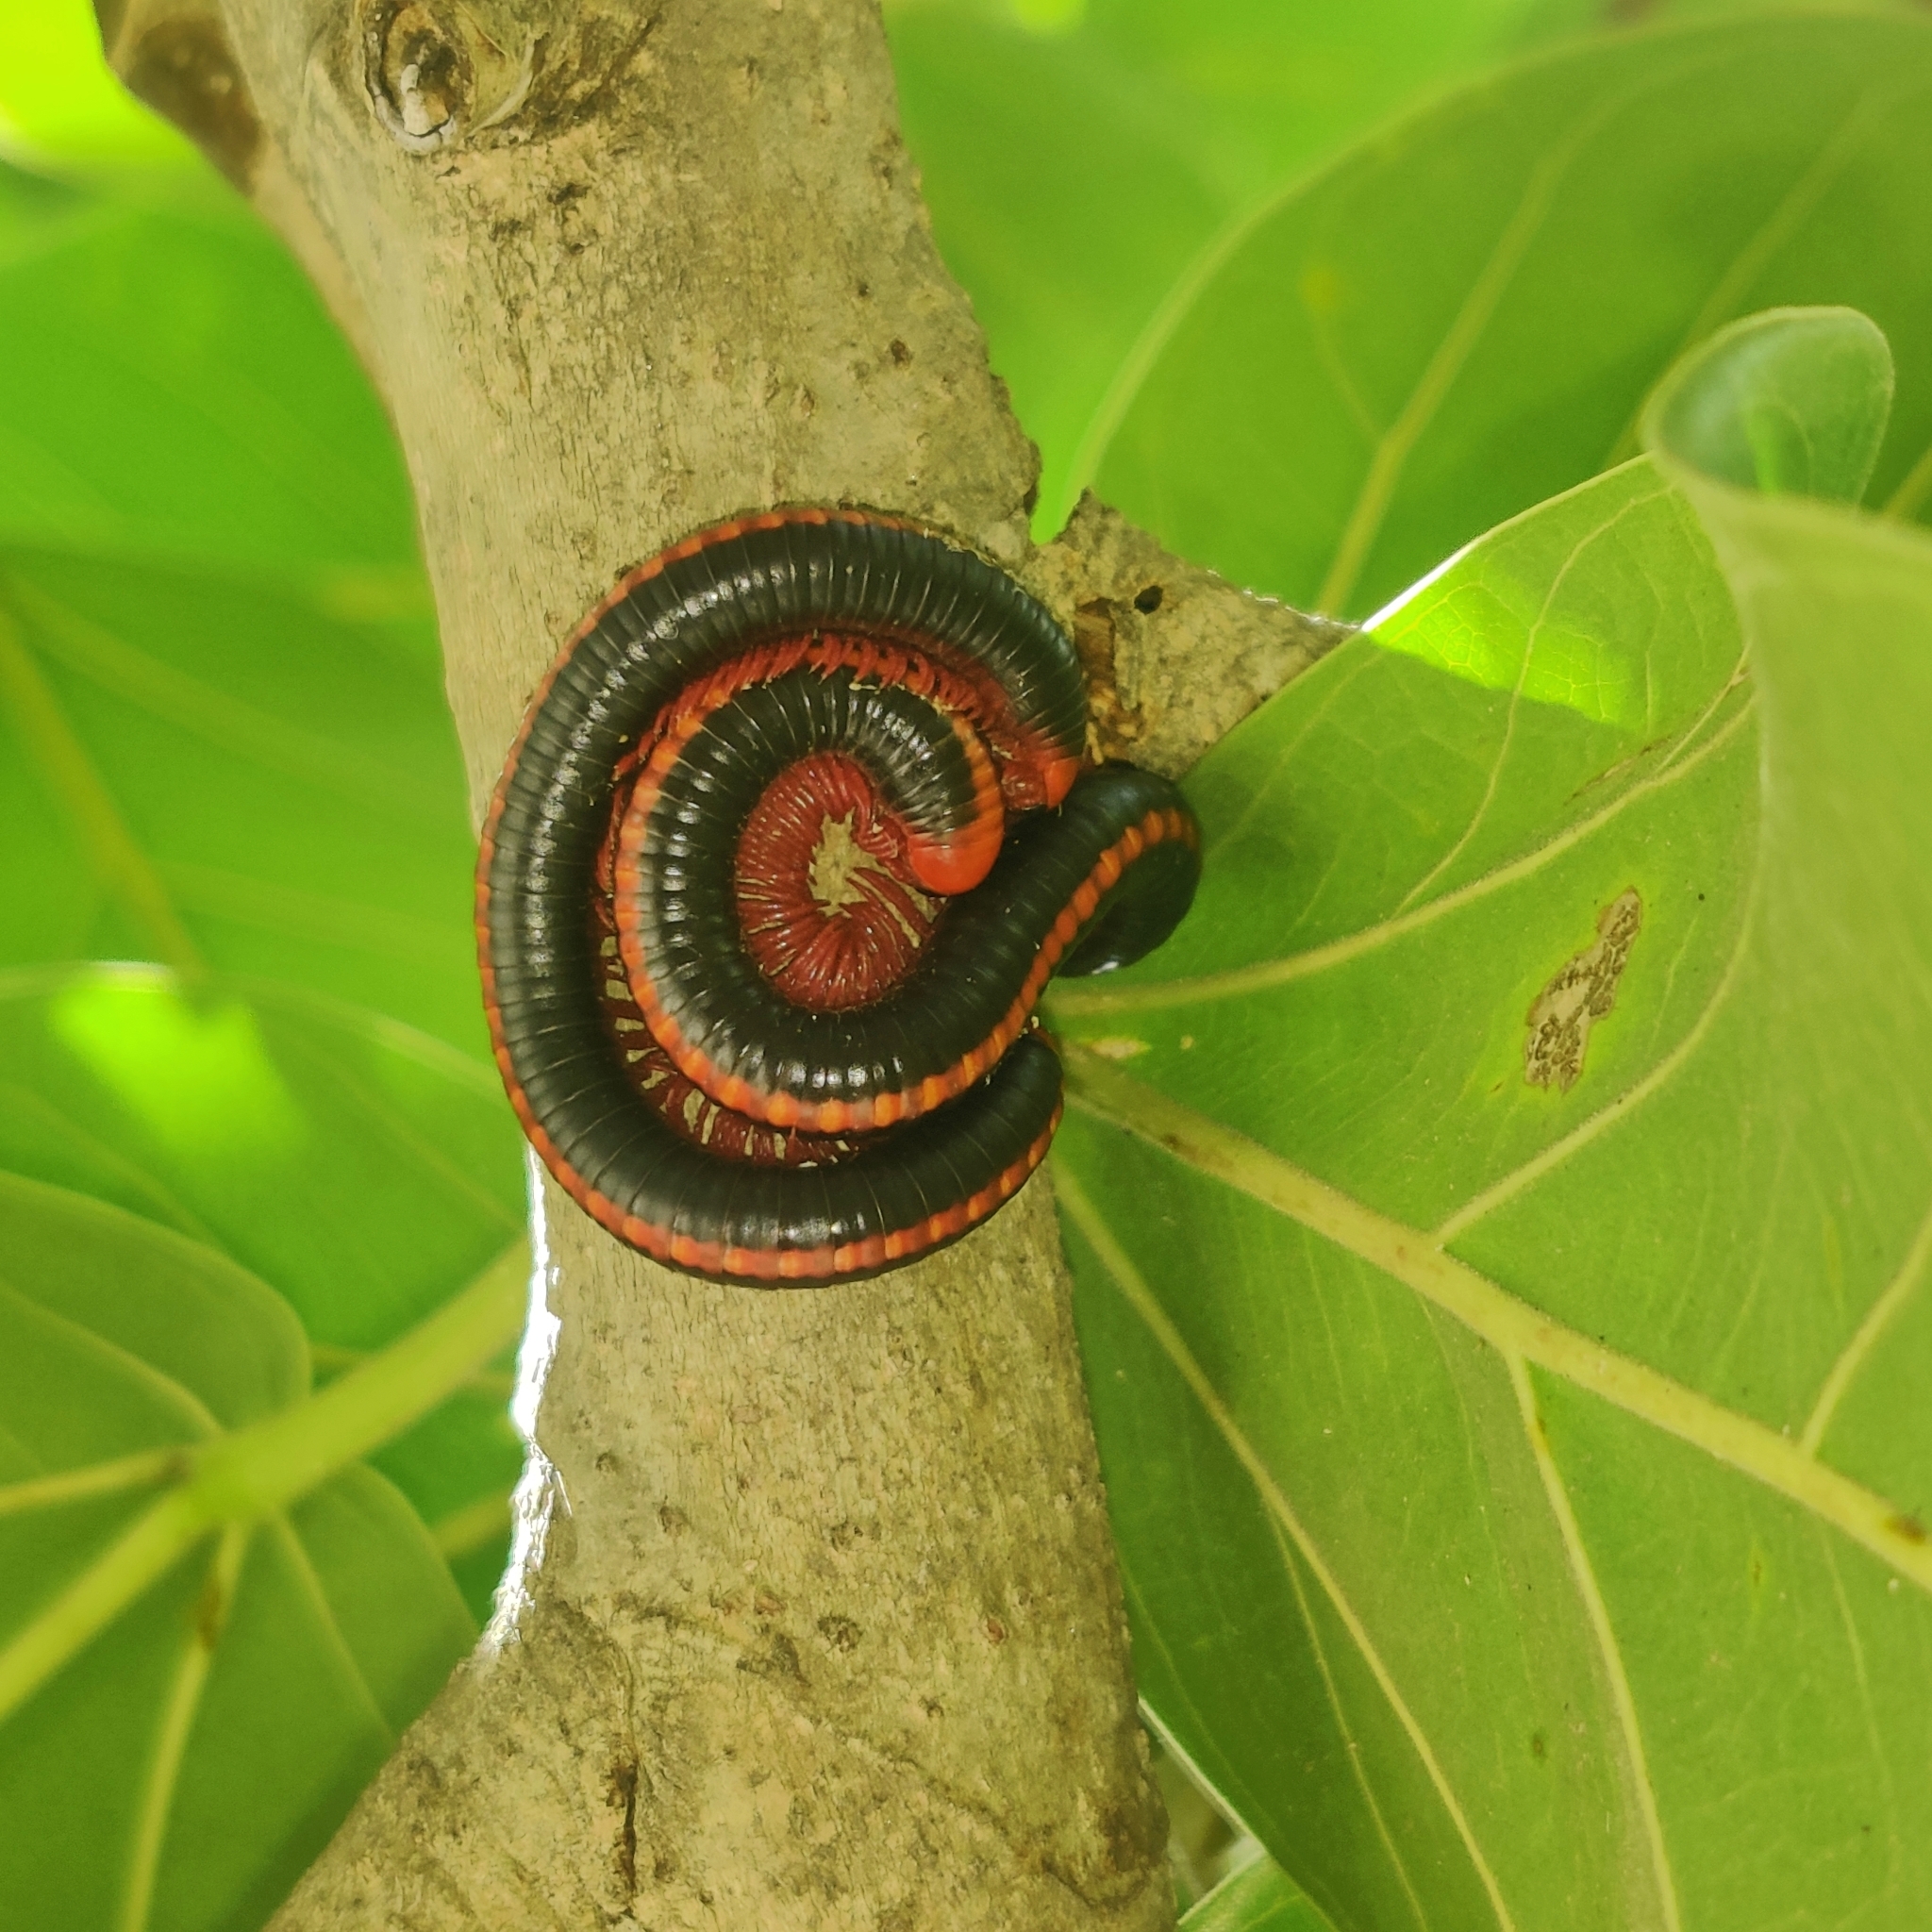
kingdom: Animalia
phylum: Arthropoda
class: Diplopoda
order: Spirobolida
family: Pachybolidae
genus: Xenobolus
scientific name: Xenobolus carnifex
